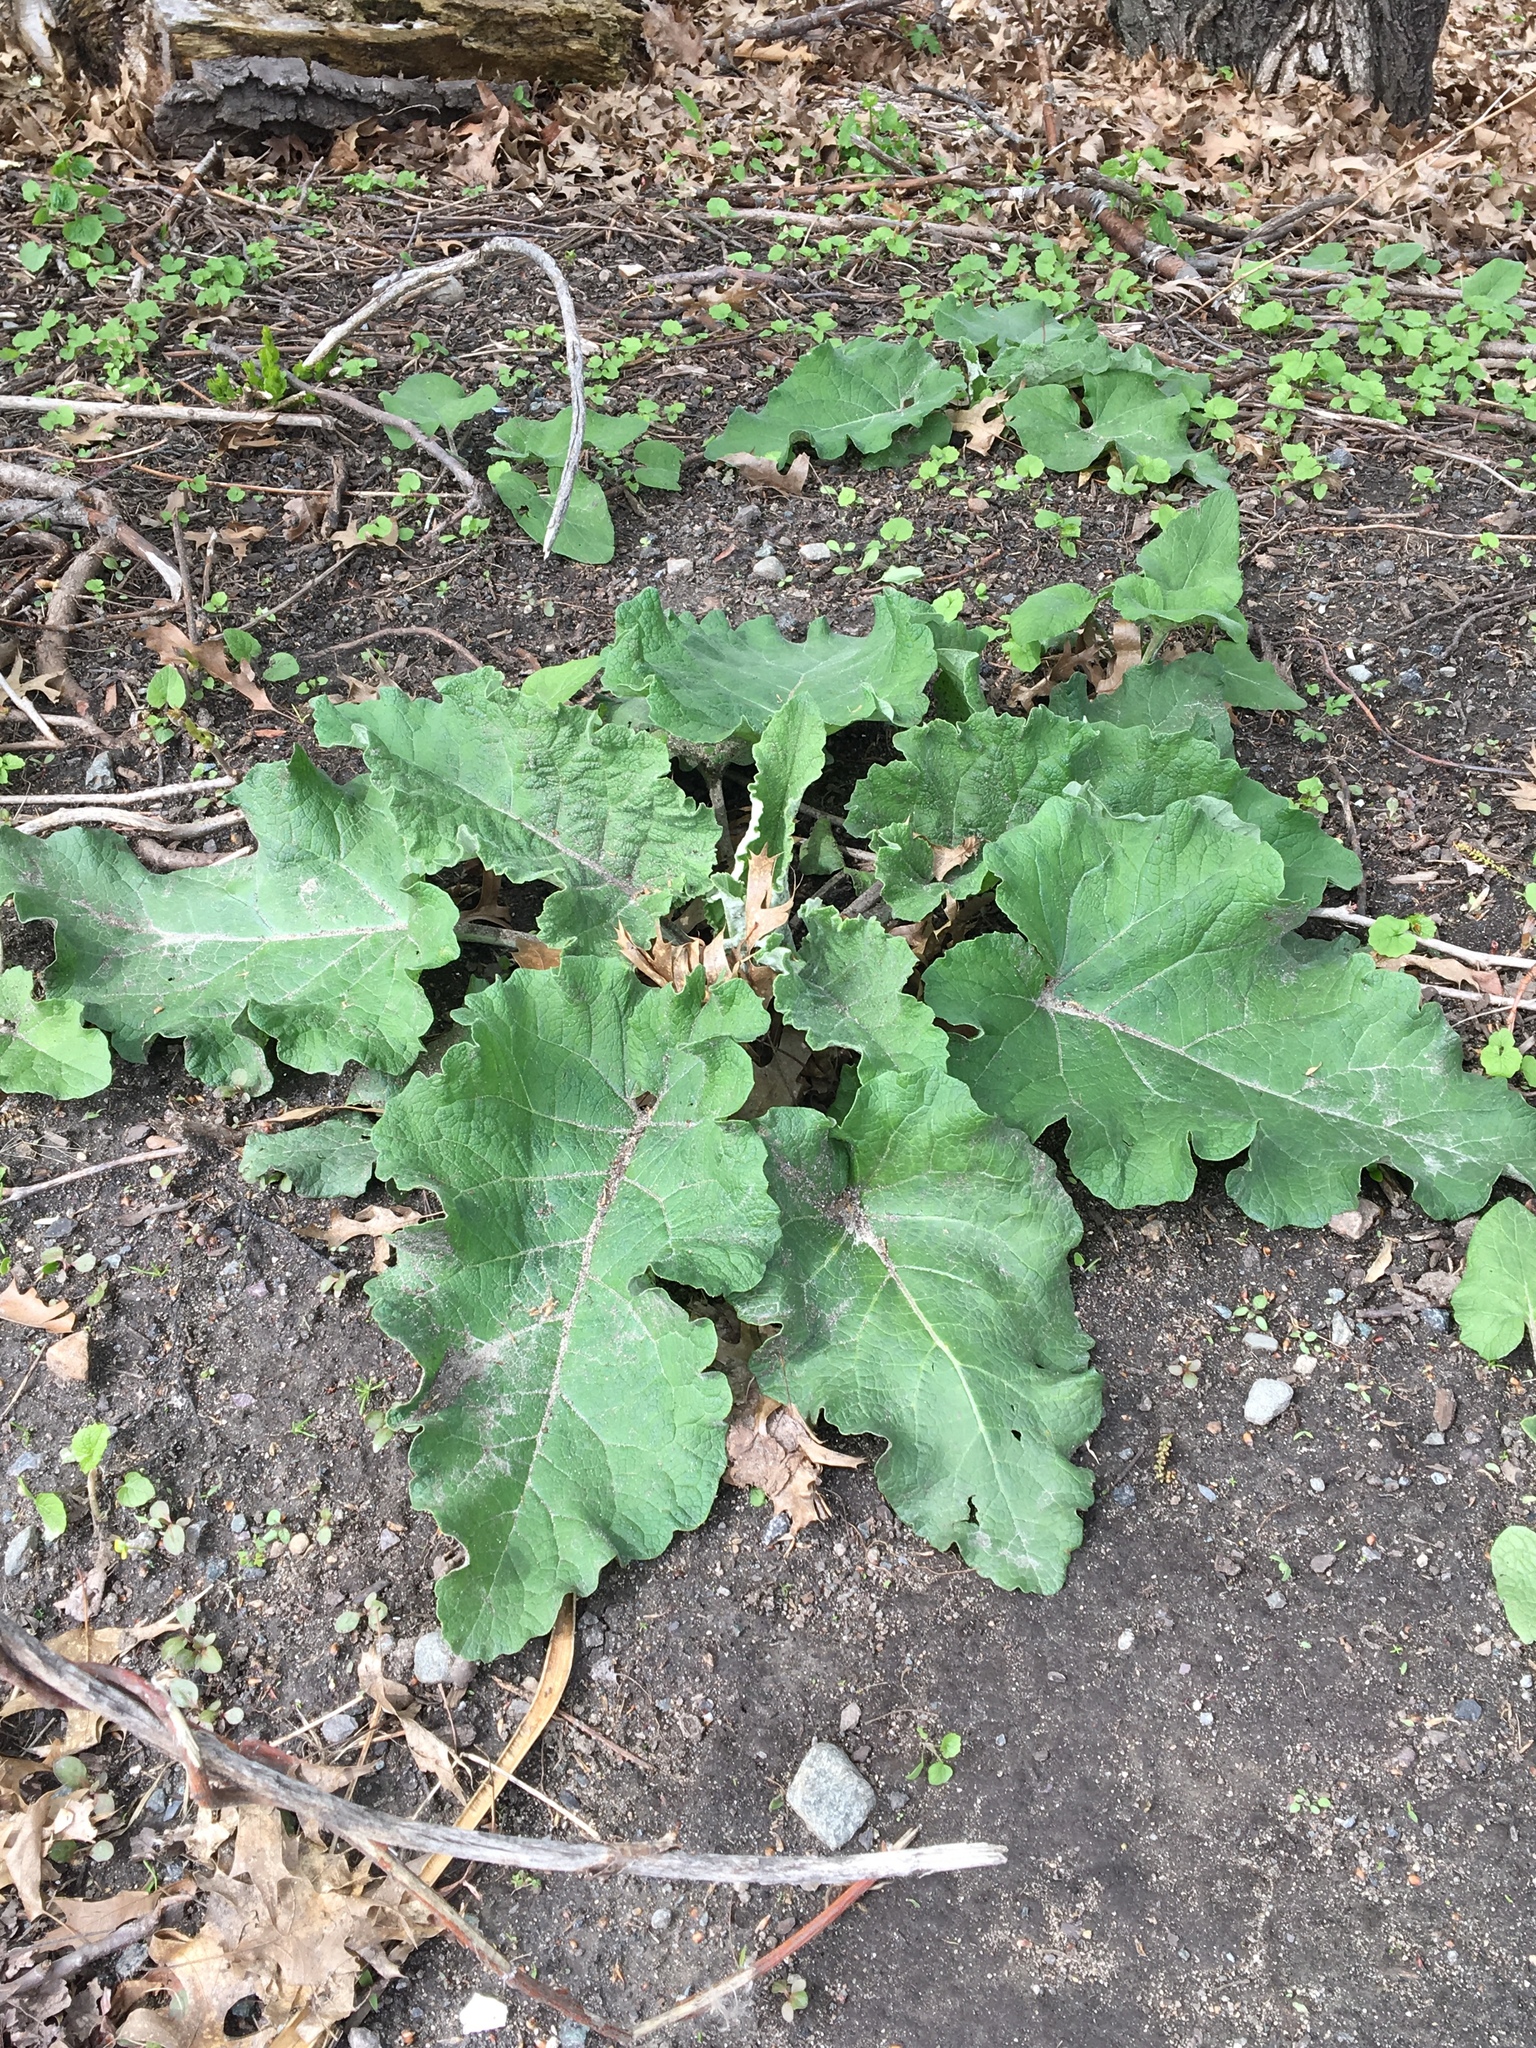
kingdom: Plantae
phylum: Tracheophyta
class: Magnoliopsida
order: Asterales
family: Asteraceae
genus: Arctium
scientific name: Arctium
